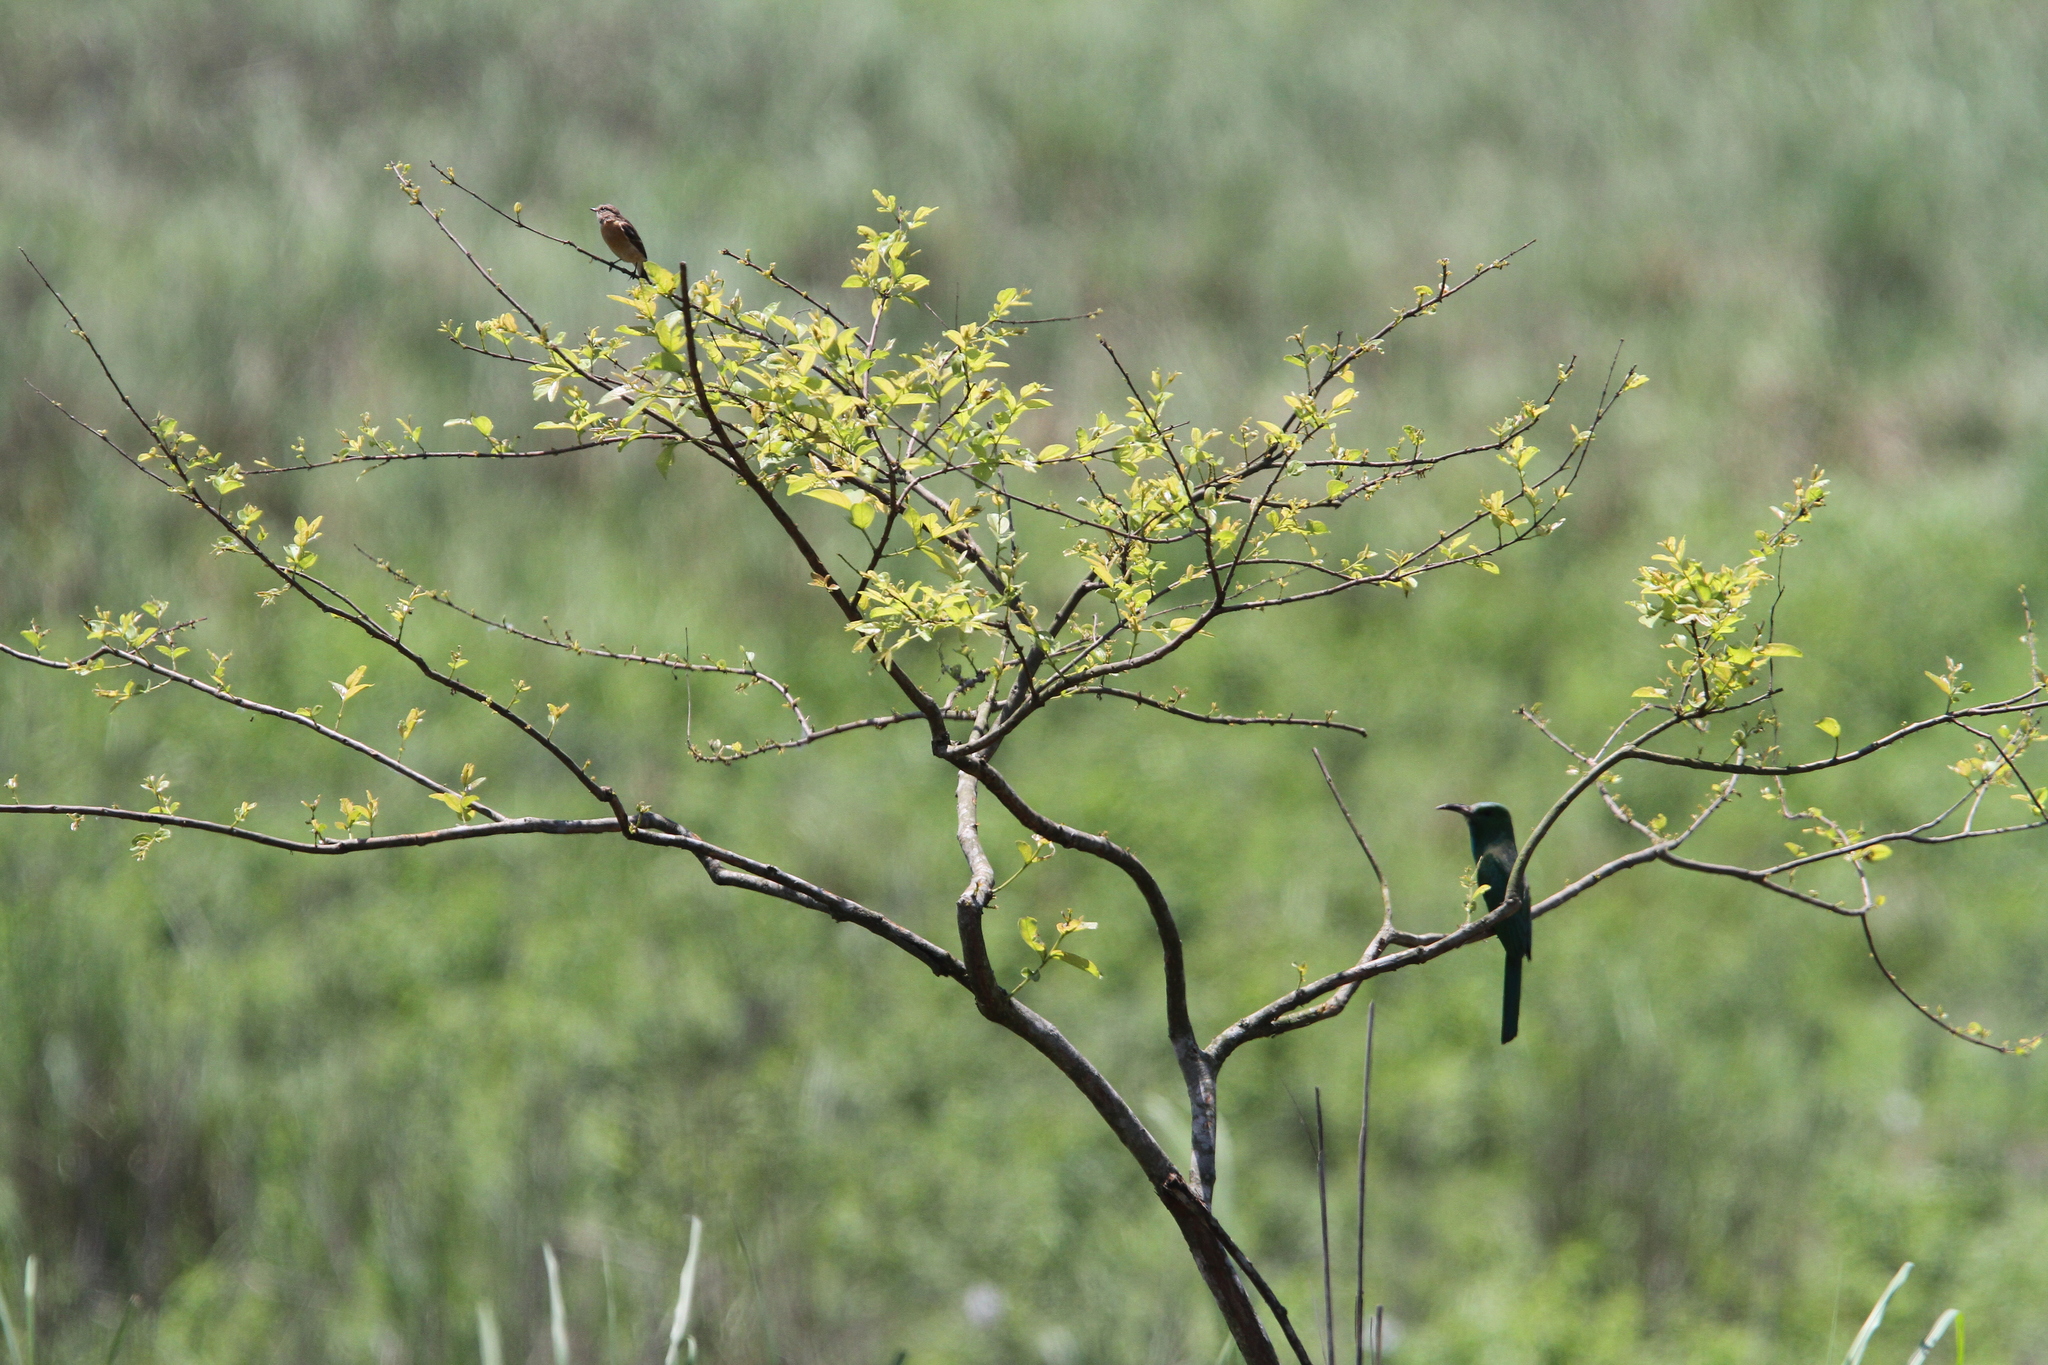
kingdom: Animalia
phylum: Chordata
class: Aves
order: Coraciiformes
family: Meropidae
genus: Nyctyornis
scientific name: Nyctyornis athertoni
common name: Blue-bearded bee-eater
